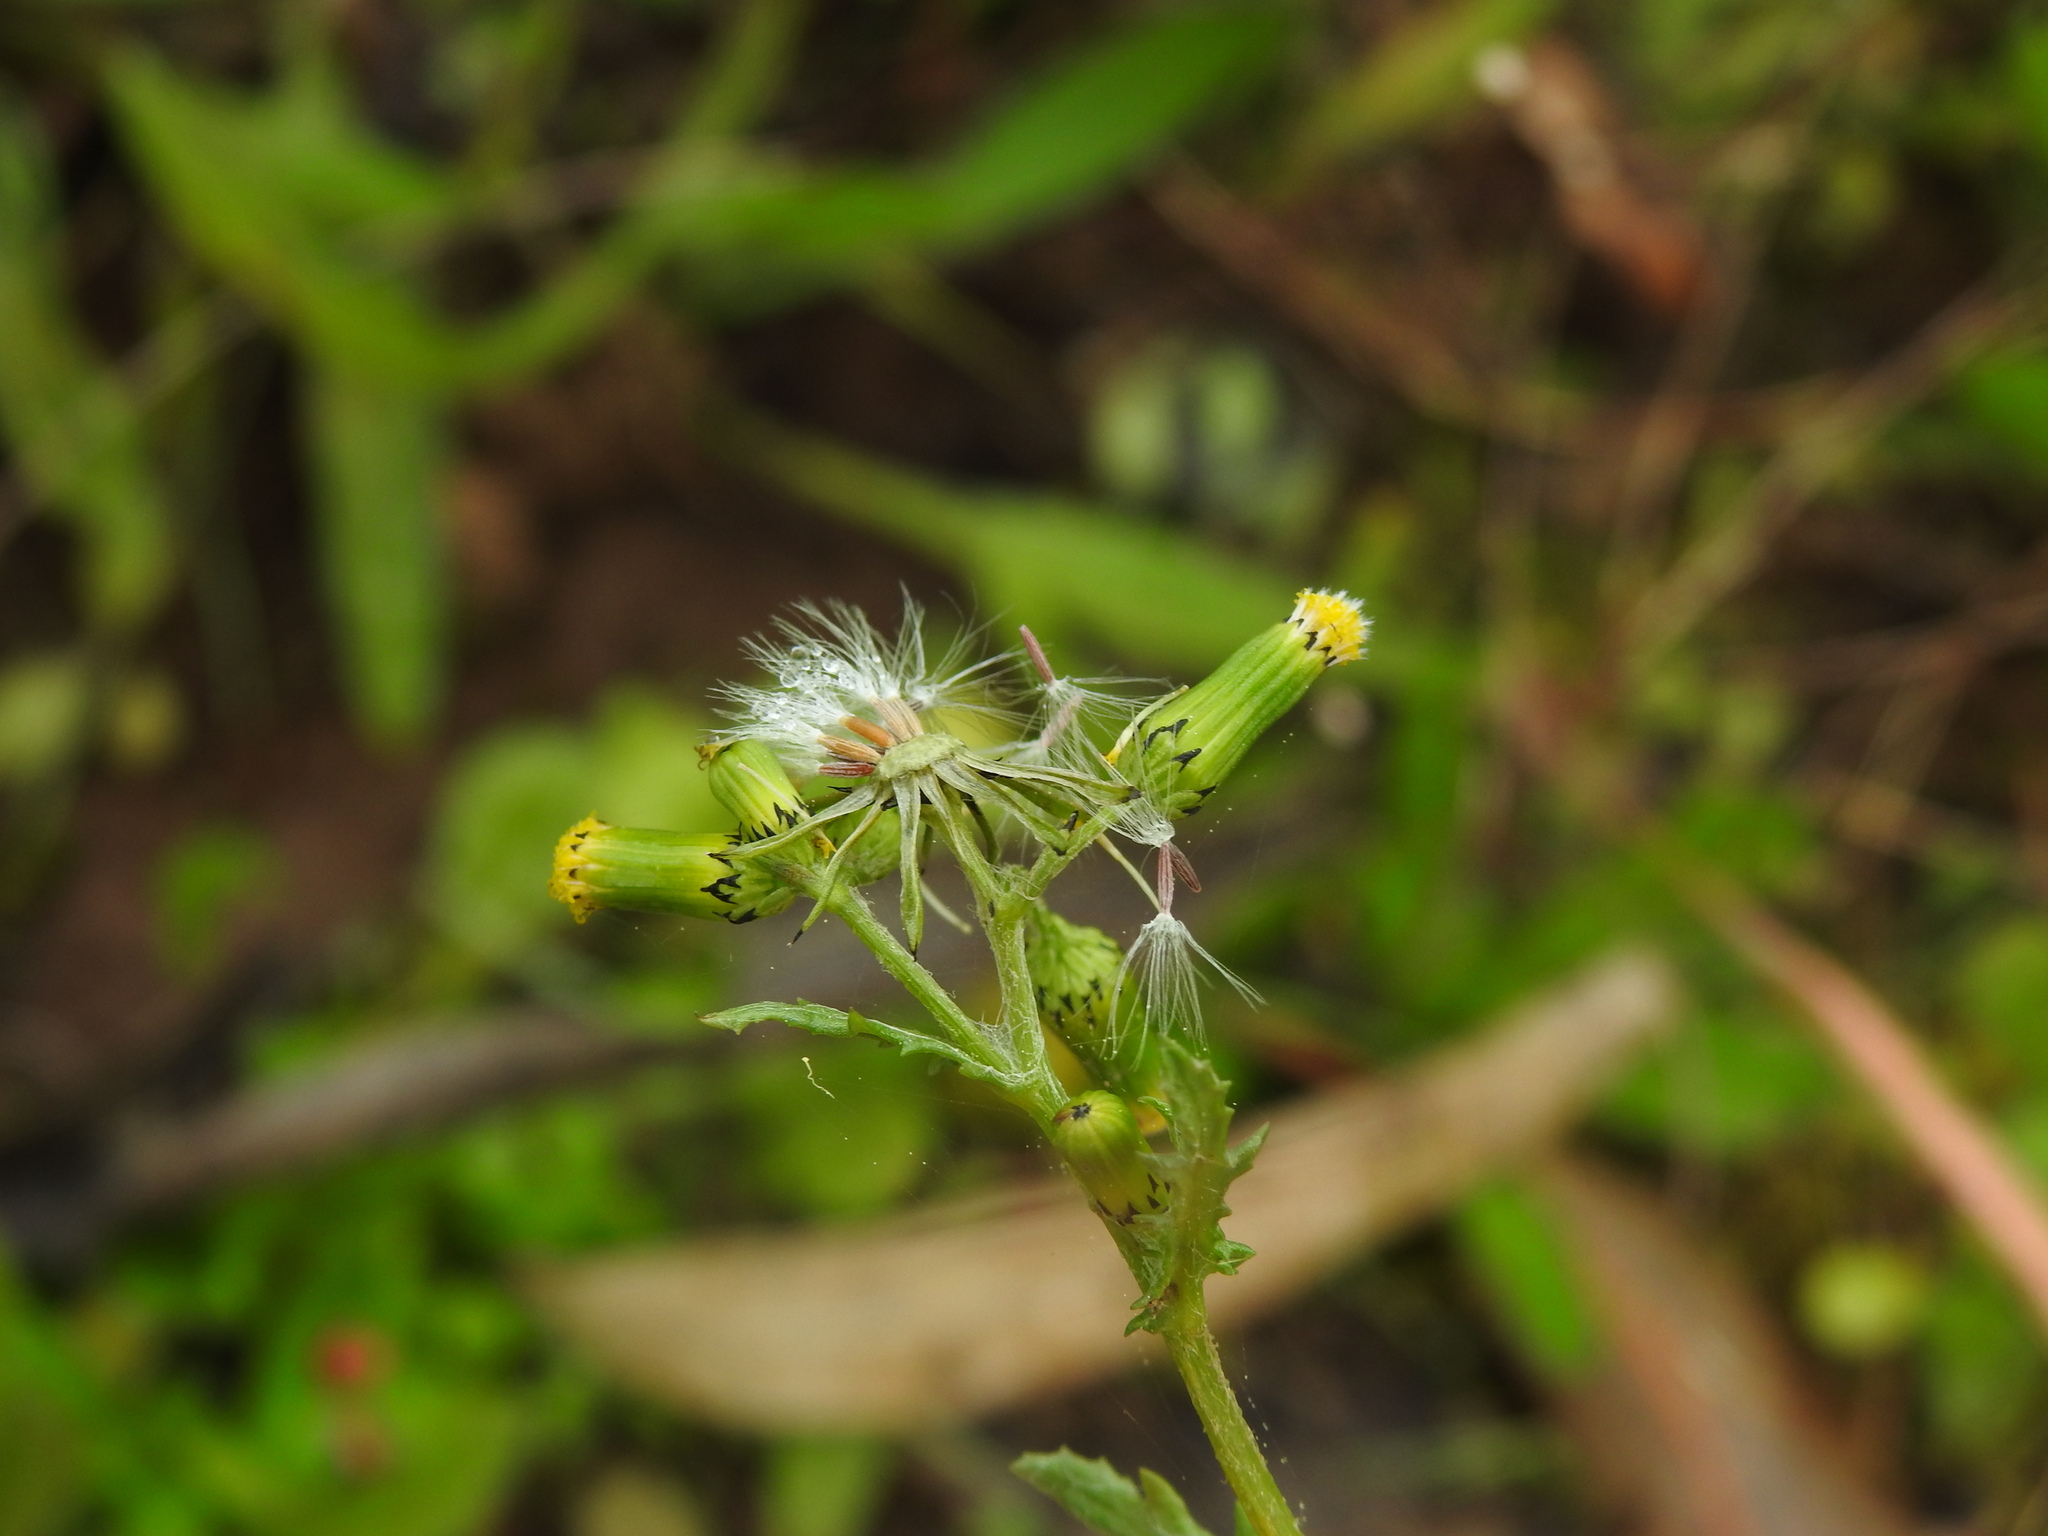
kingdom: Plantae
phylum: Tracheophyta
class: Magnoliopsida
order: Asterales
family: Asteraceae
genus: Senecio
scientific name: Senecio vulgaris
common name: Old-man-in-the-spring
